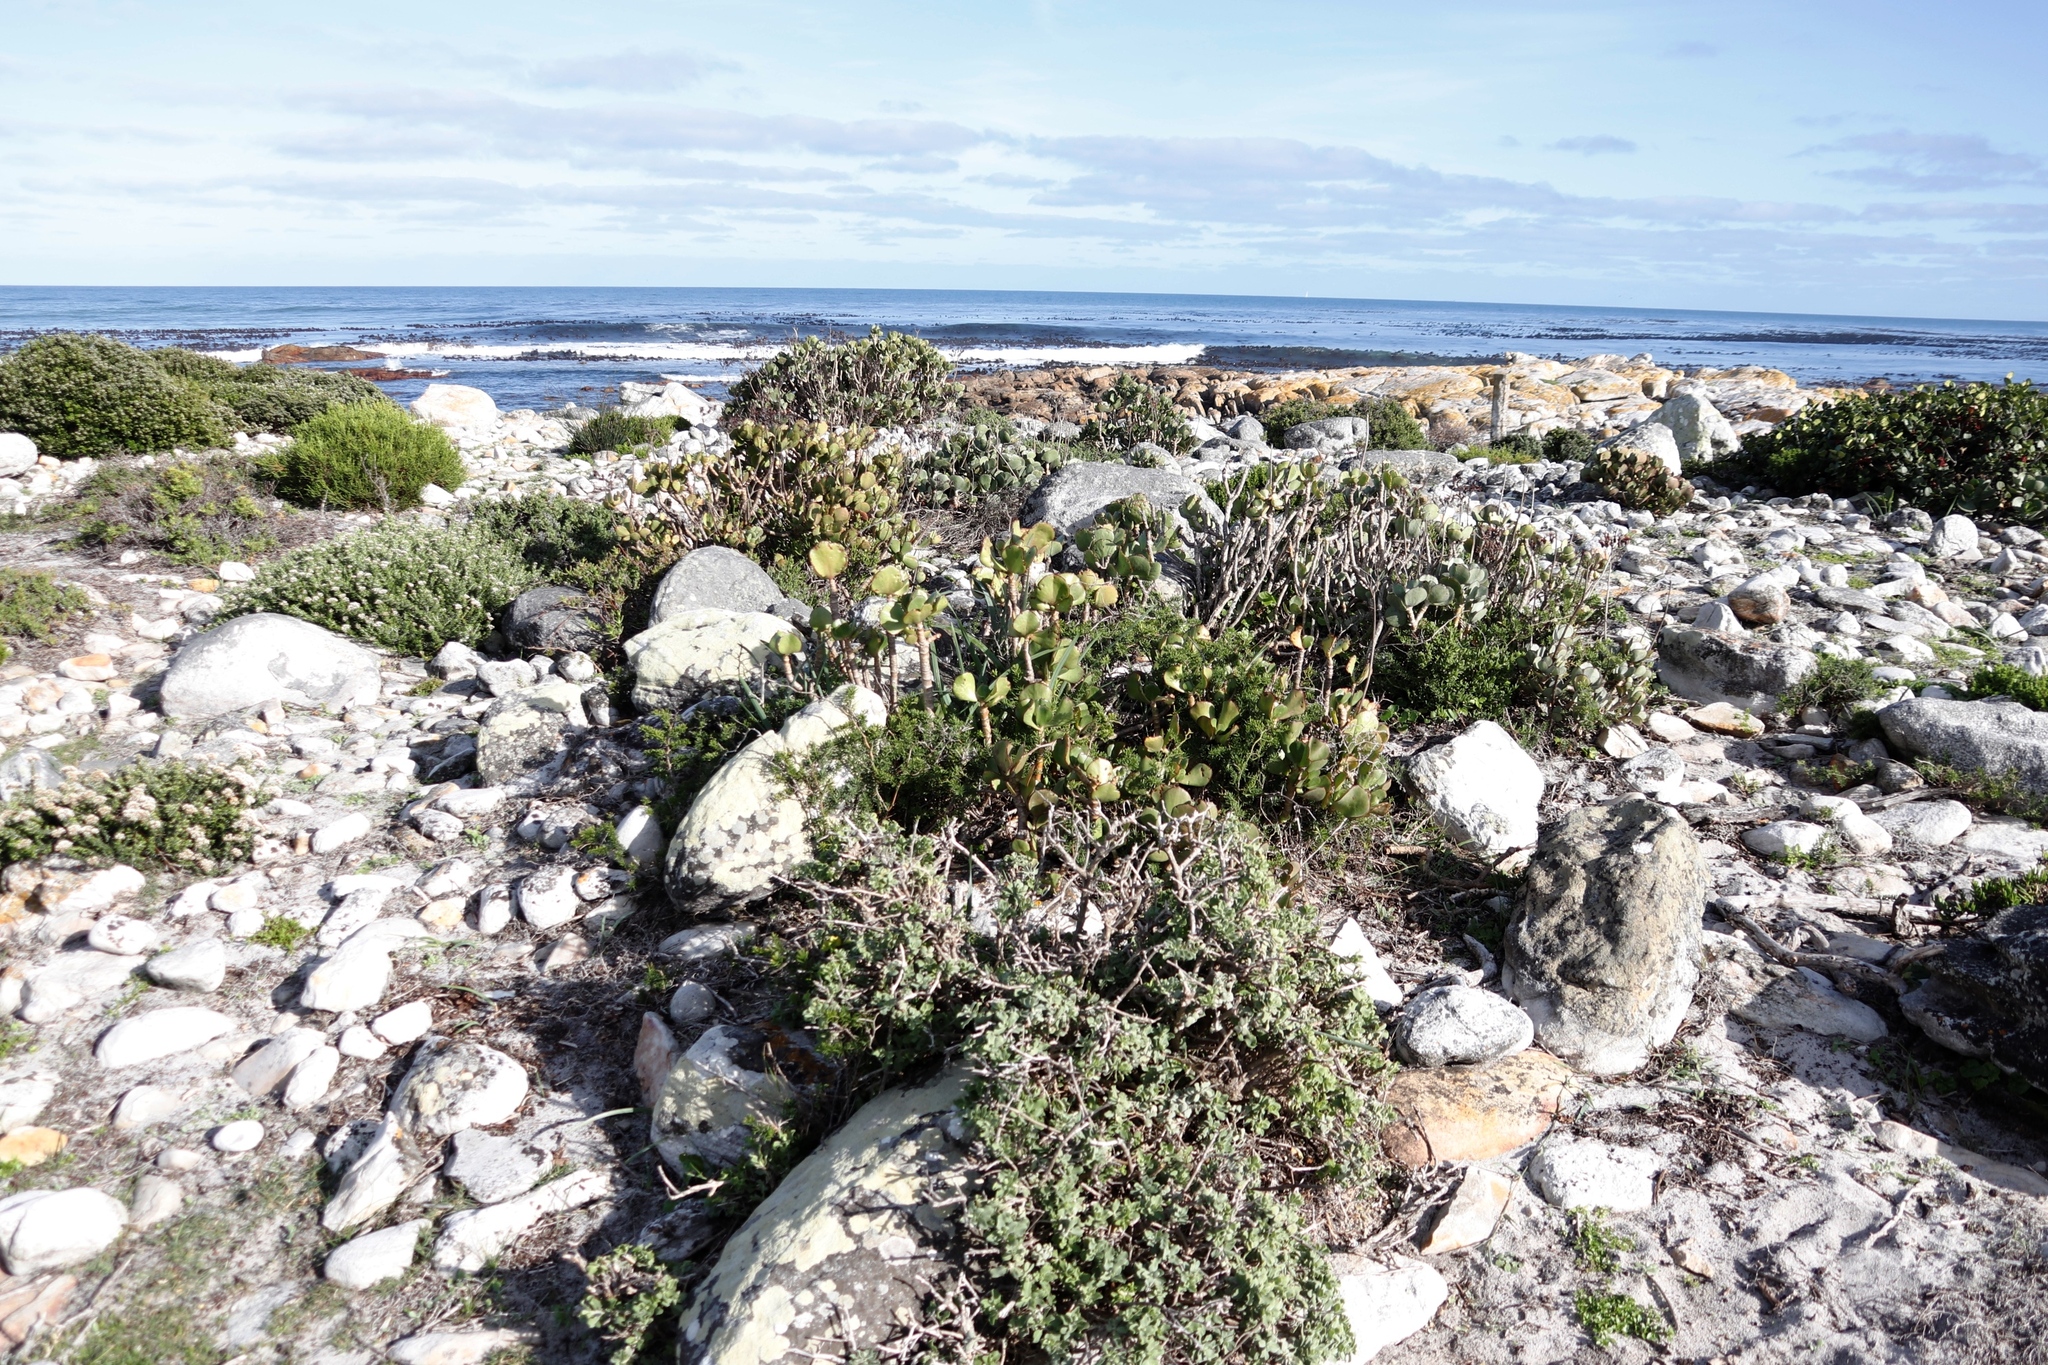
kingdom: Plantae
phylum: Tracheophyta
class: Magnoliopsida
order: Saxifragales
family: Crassulaceae
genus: Cotyledon
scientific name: Cotyledon orbiculata
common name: Pig's ear
